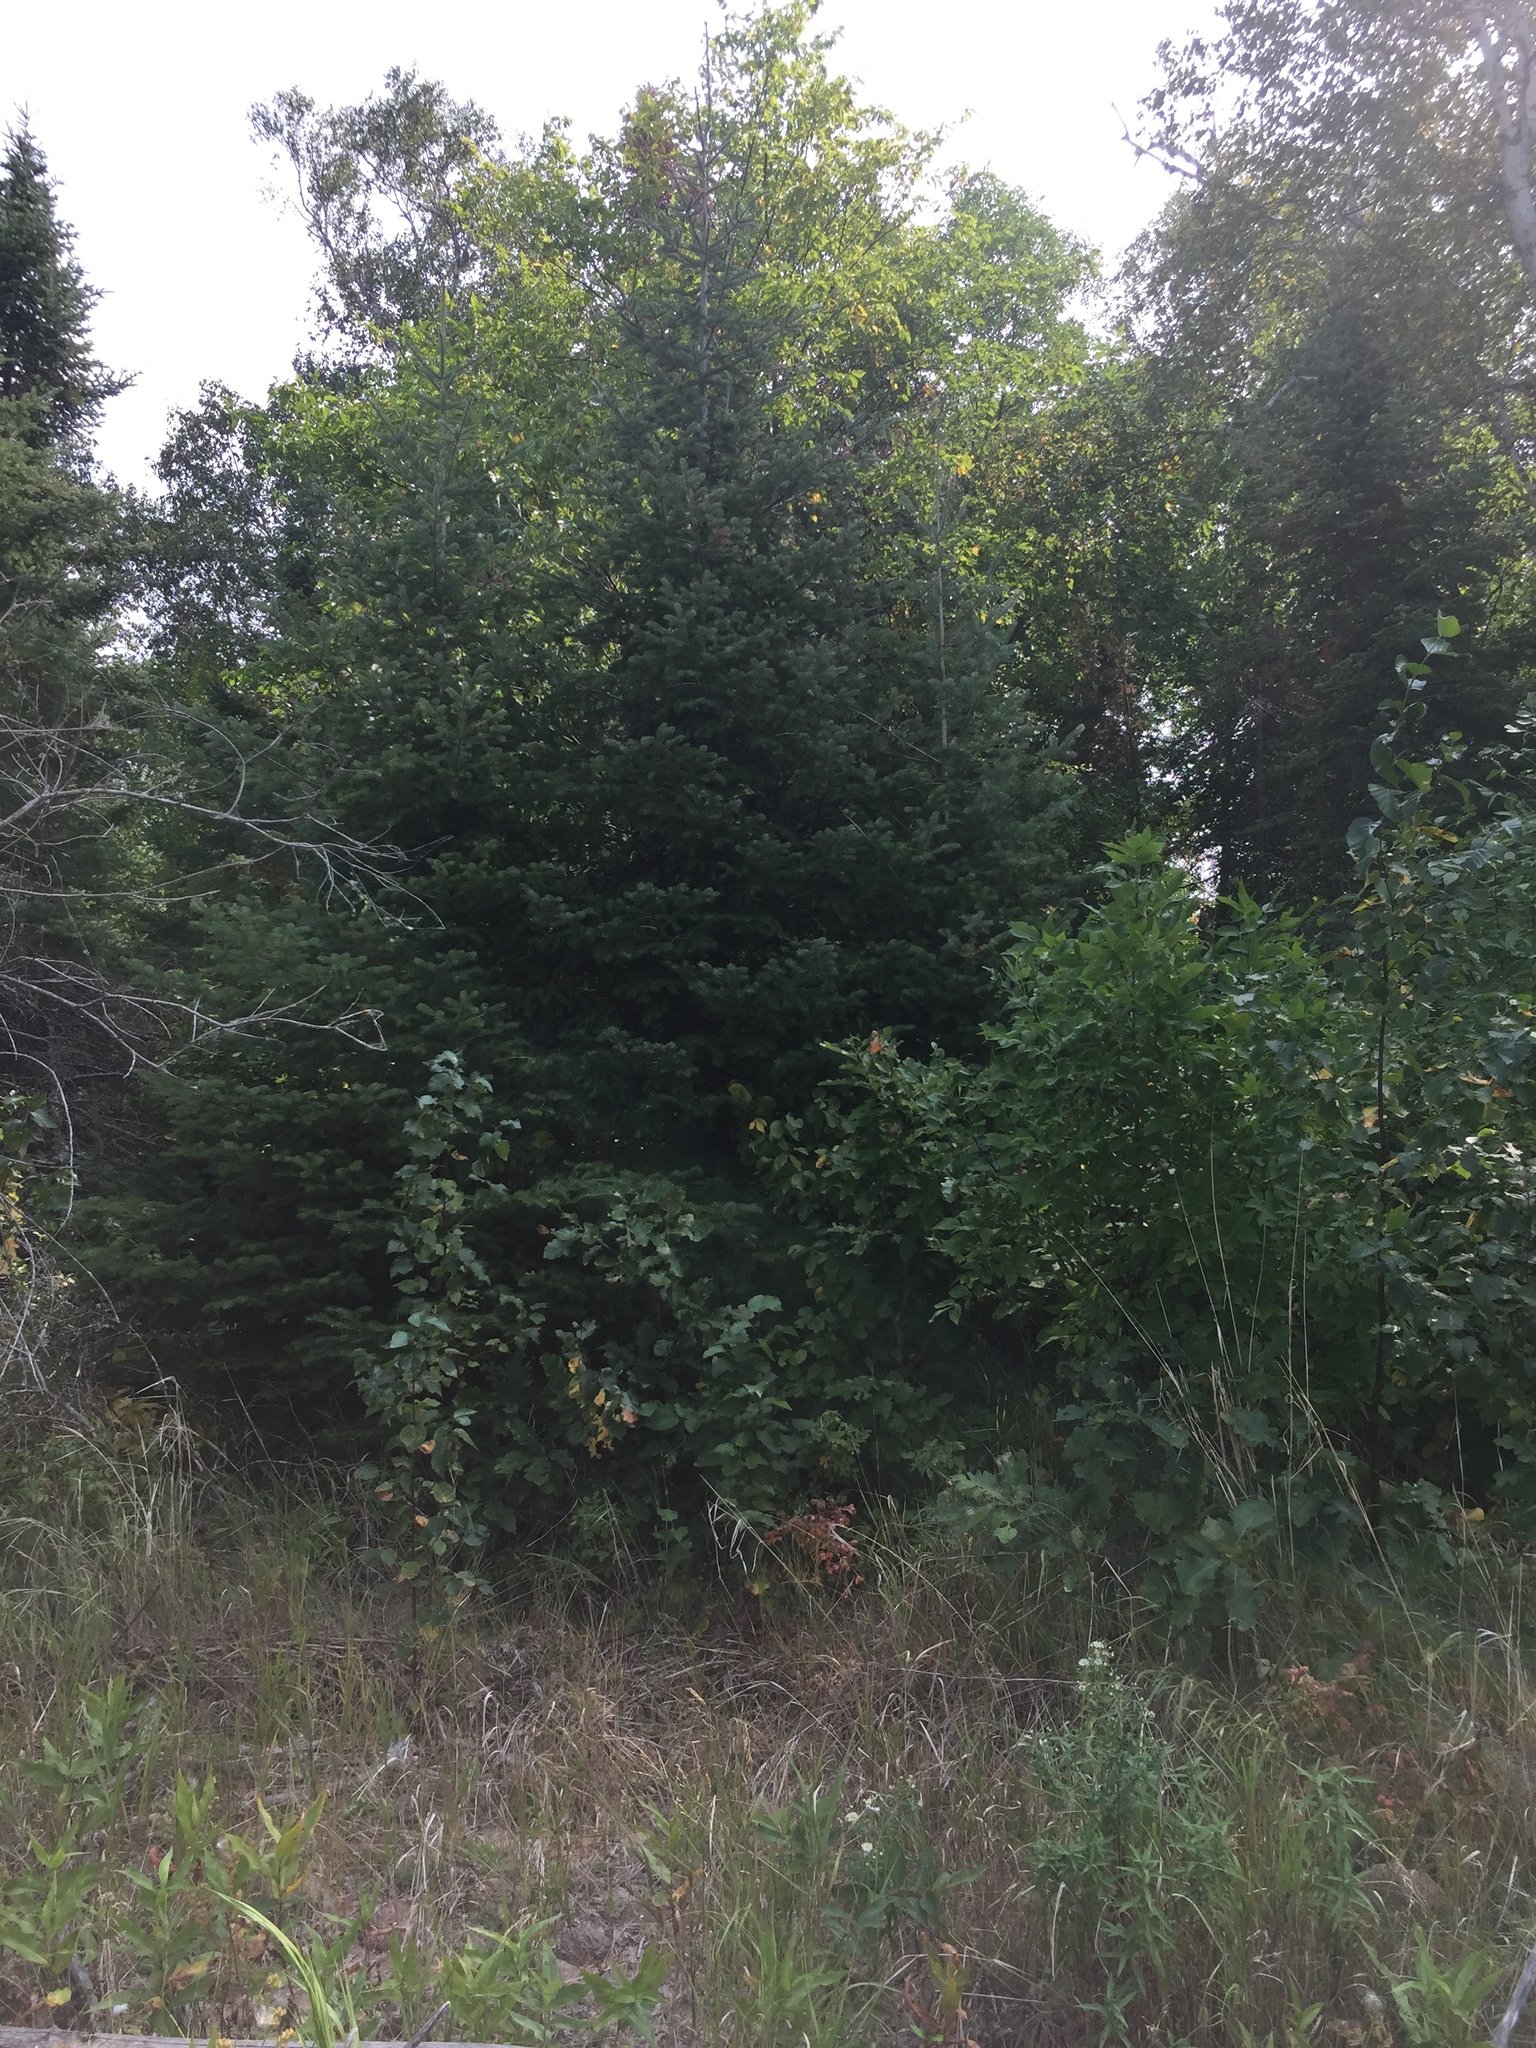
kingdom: Plantae
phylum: Tracheophyta
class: Pinopsida
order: Pinales
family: Pinaceae
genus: Picea
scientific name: Picea glauca
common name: White spruce
